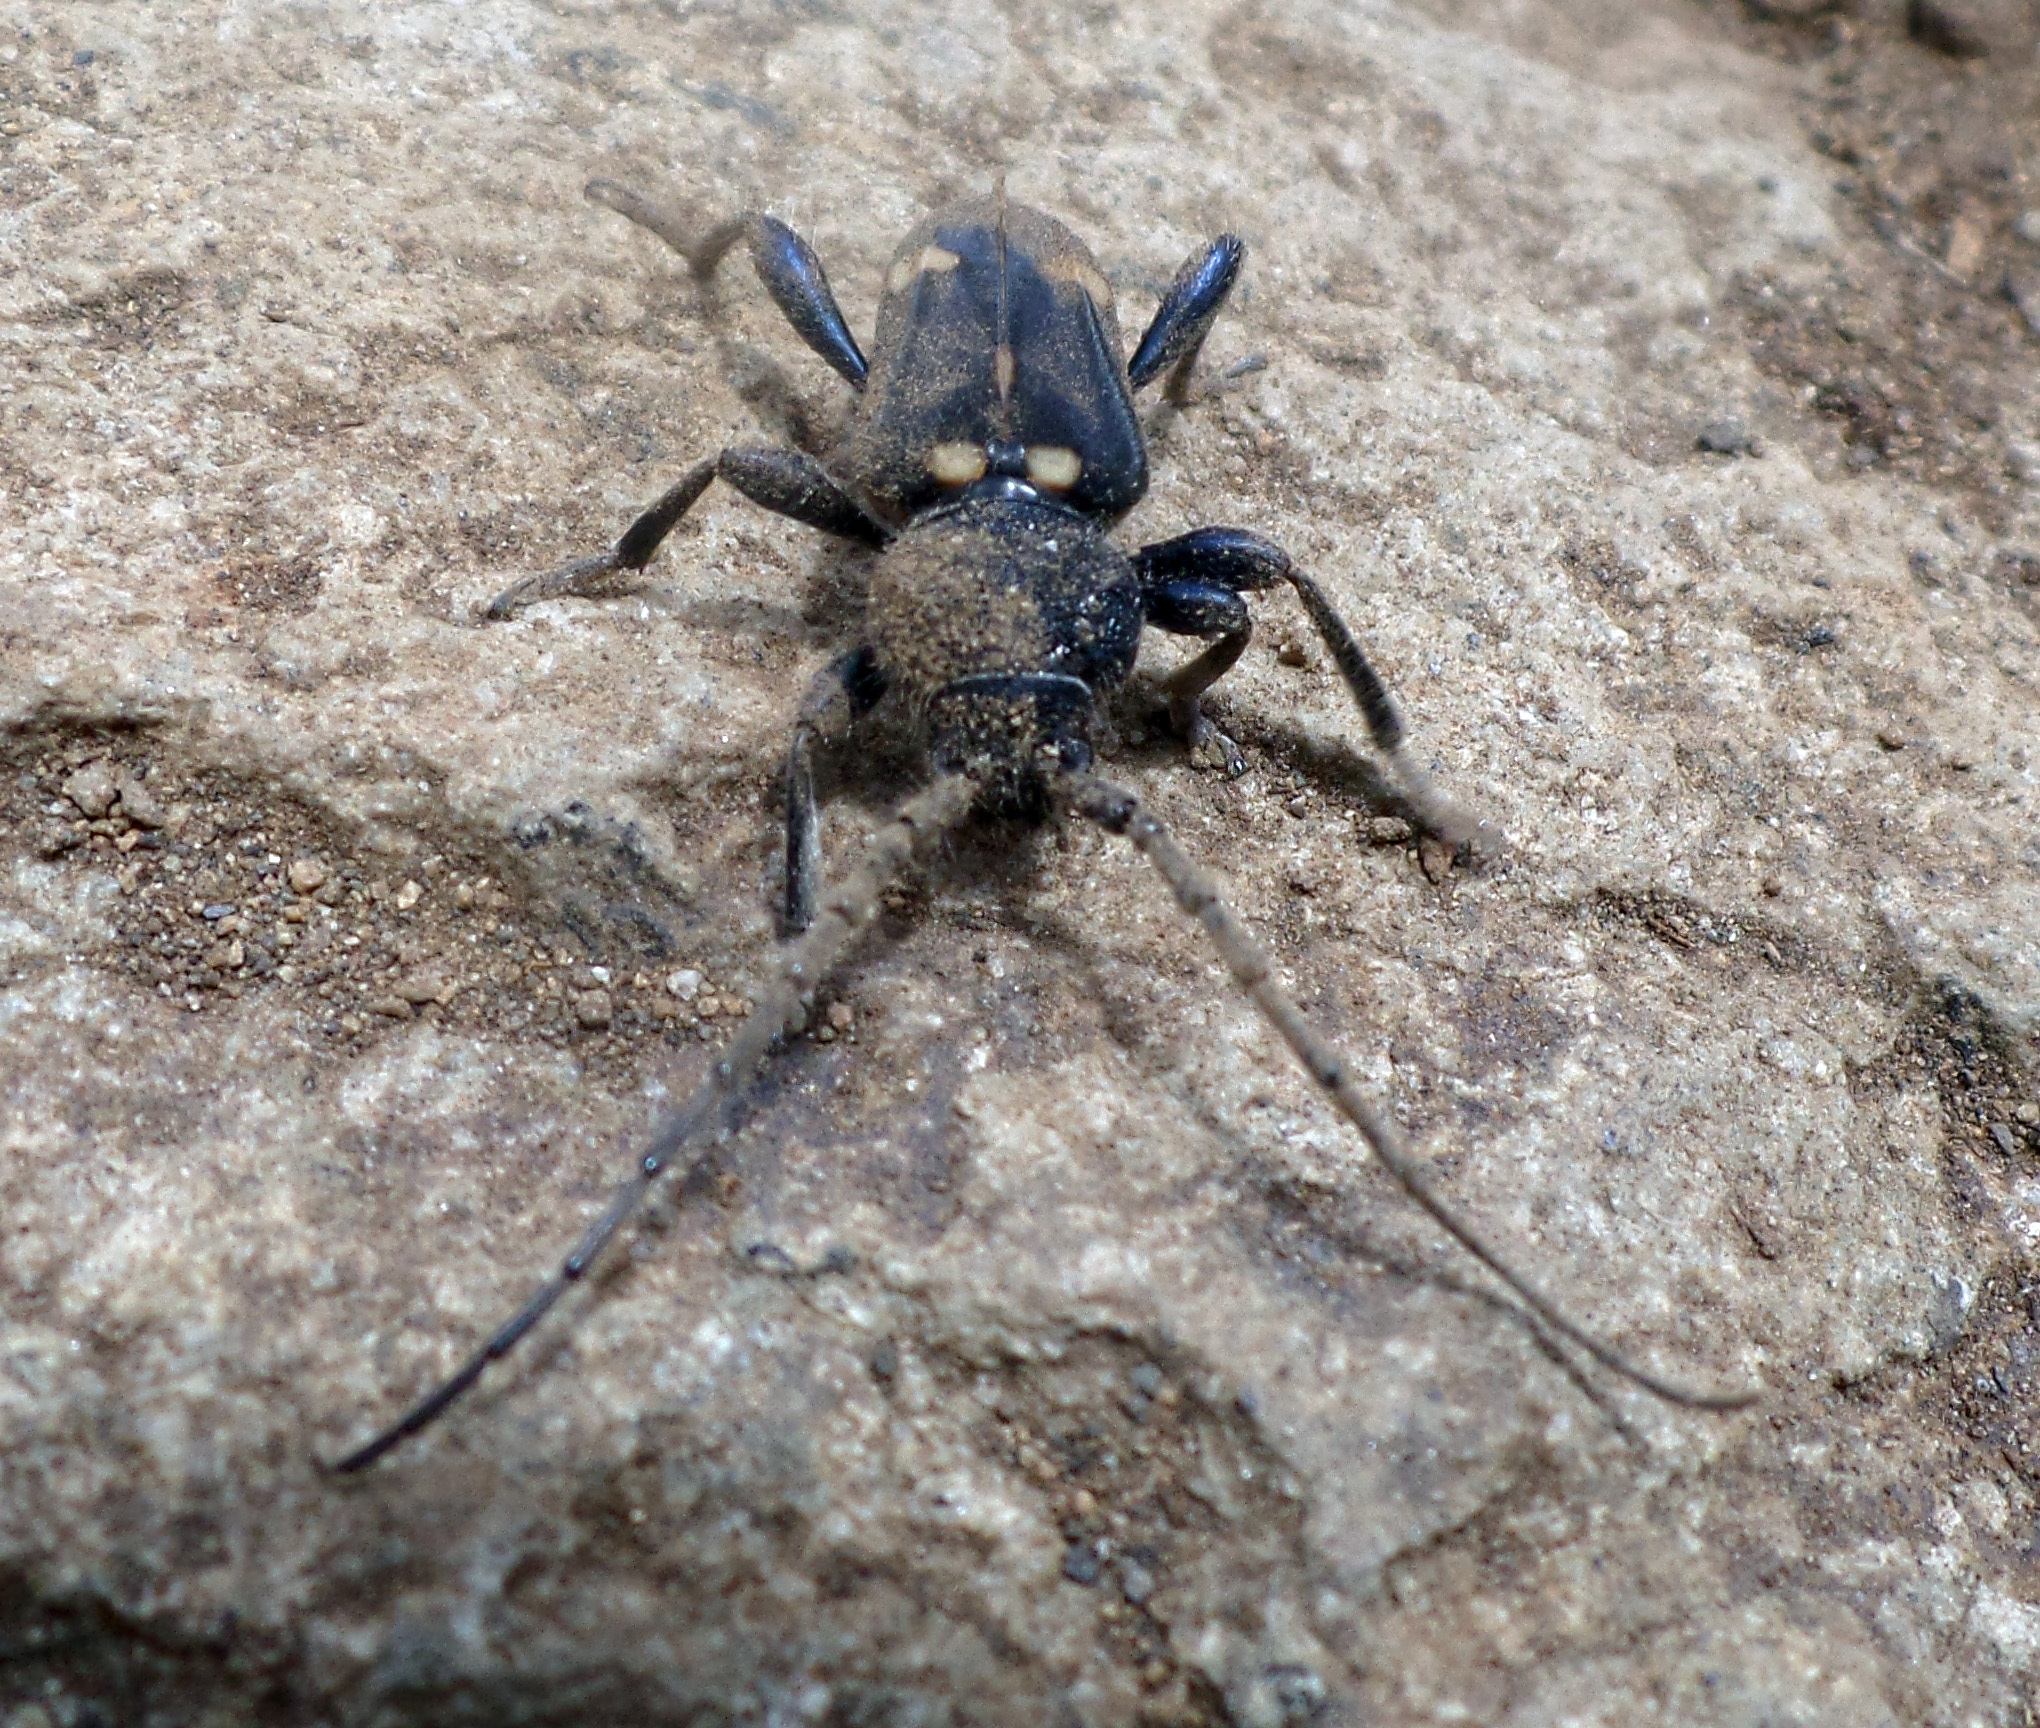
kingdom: Animalia
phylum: Arthropoda
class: Insecta
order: Coleoptera
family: Cerambycidae
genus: Calydon
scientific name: Calydon globithorax
